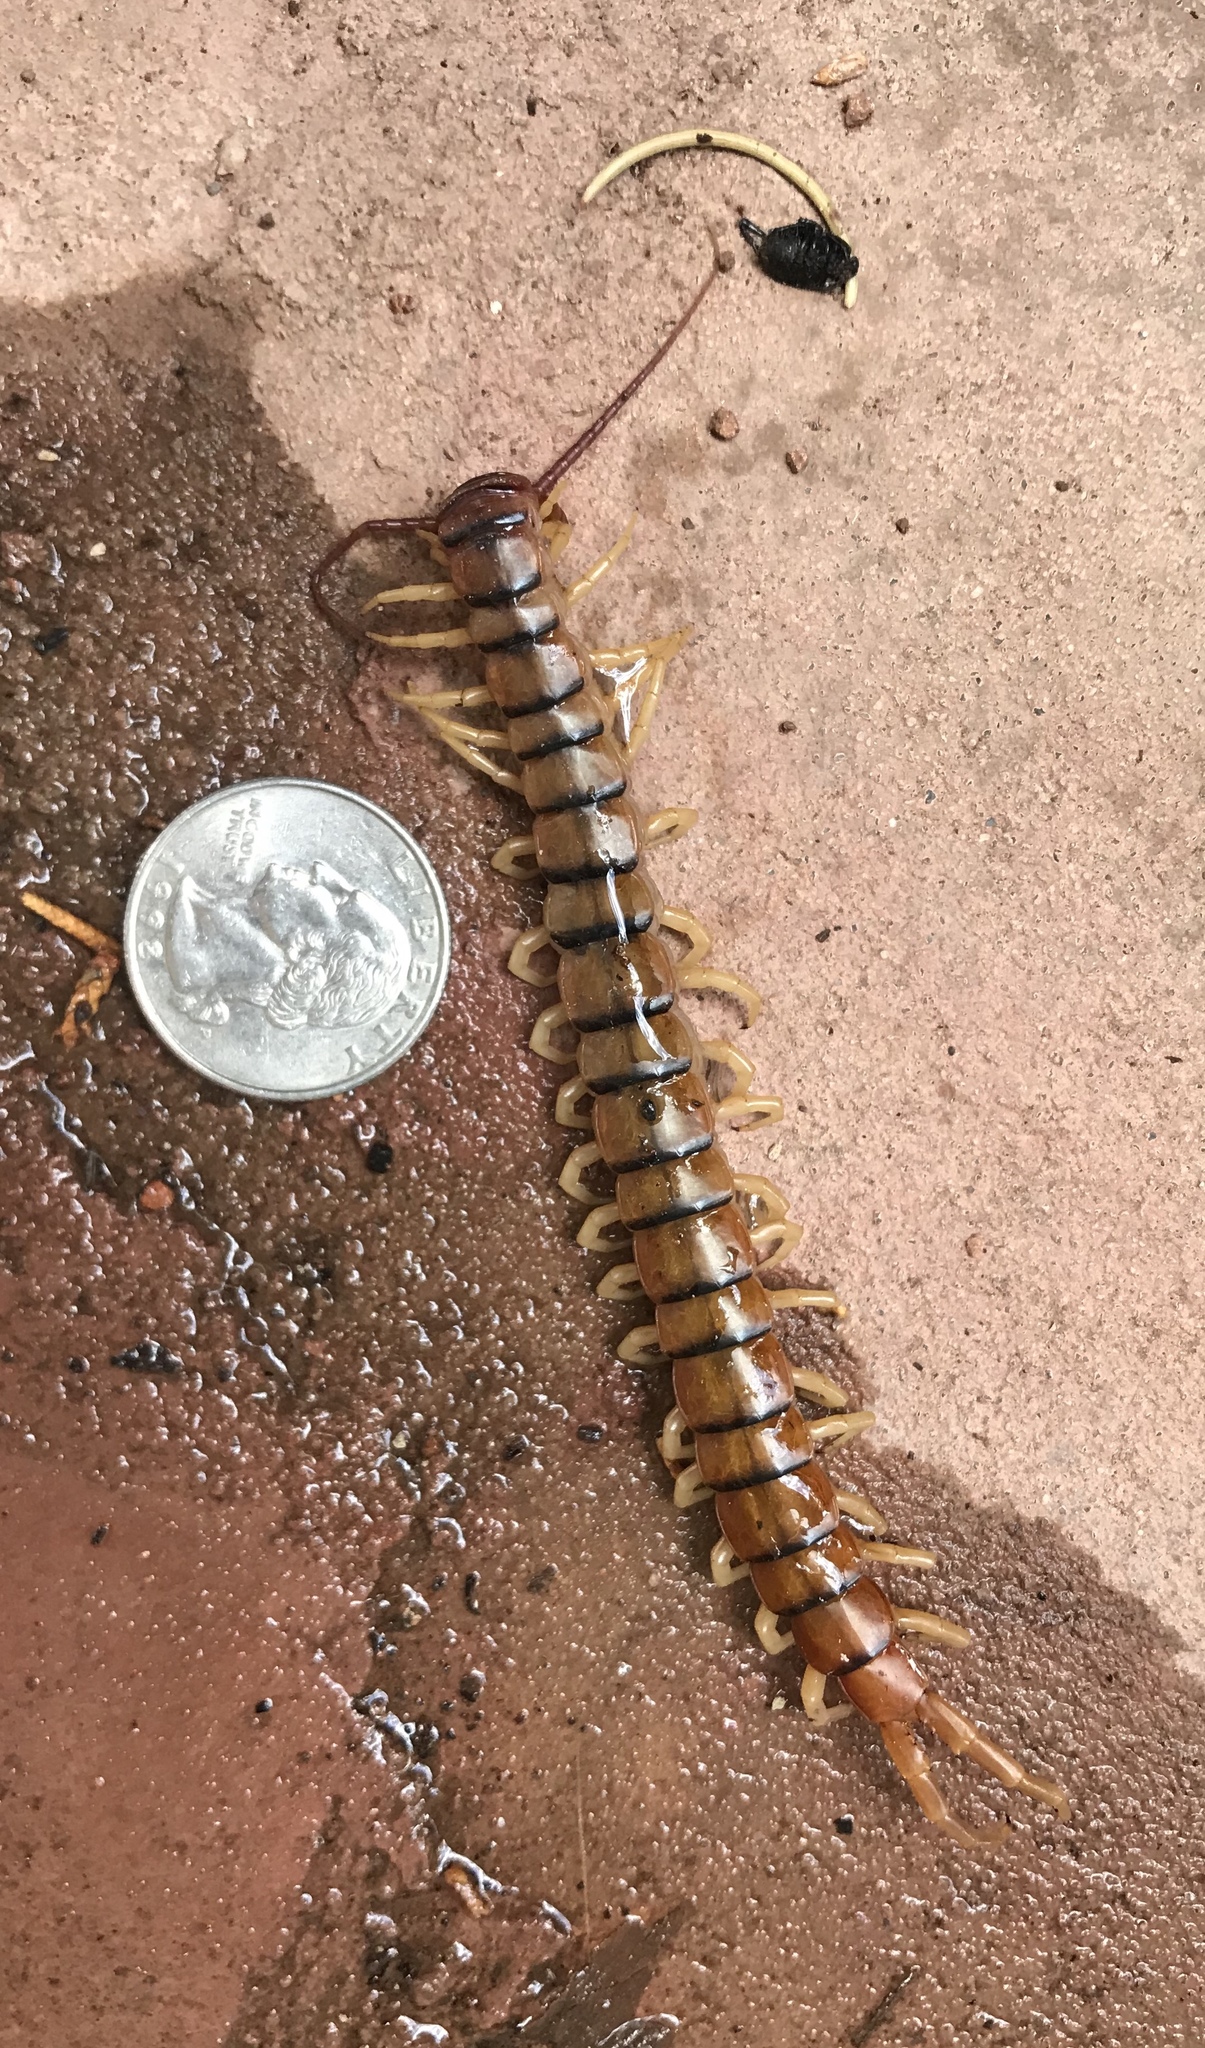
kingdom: Animalia
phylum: Arthropoda
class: Chilopoda
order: Scolopendromorpha
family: Scolopendridae
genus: Scolopendra
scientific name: Scolopendra polymorpha
